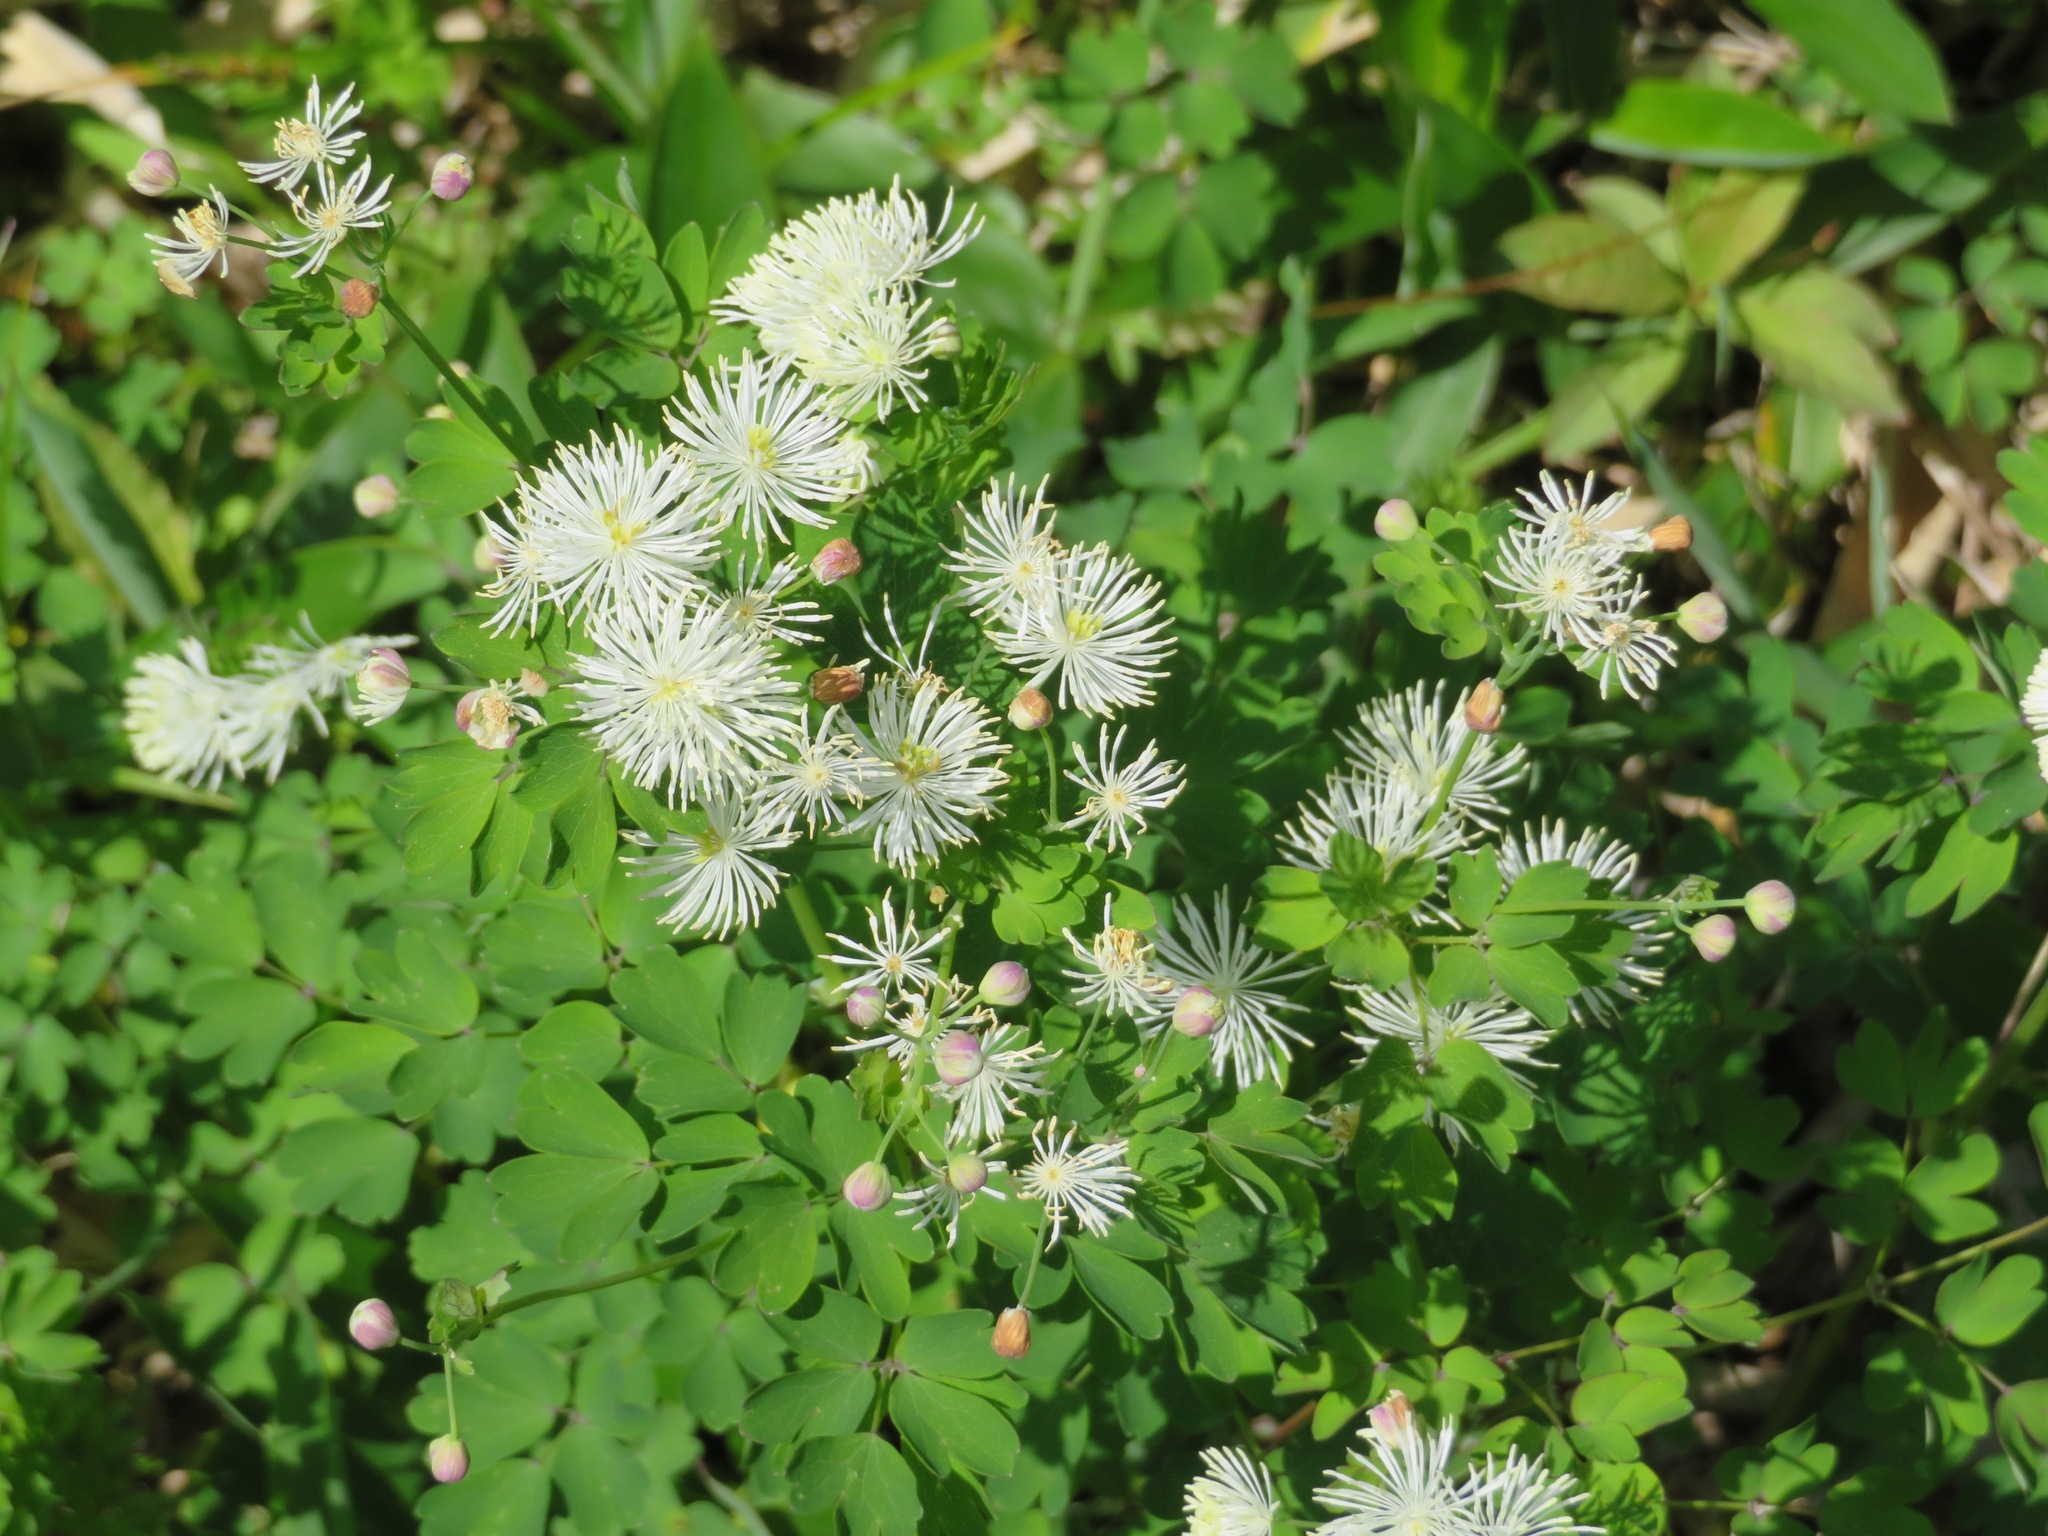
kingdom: Plantae
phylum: Tracheophyta
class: Magnoliopsida
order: Ranunculales
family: Ranunculaceae
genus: Thalictrum
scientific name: Thalictrum aquilegiifolium
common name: French meadow-rue
